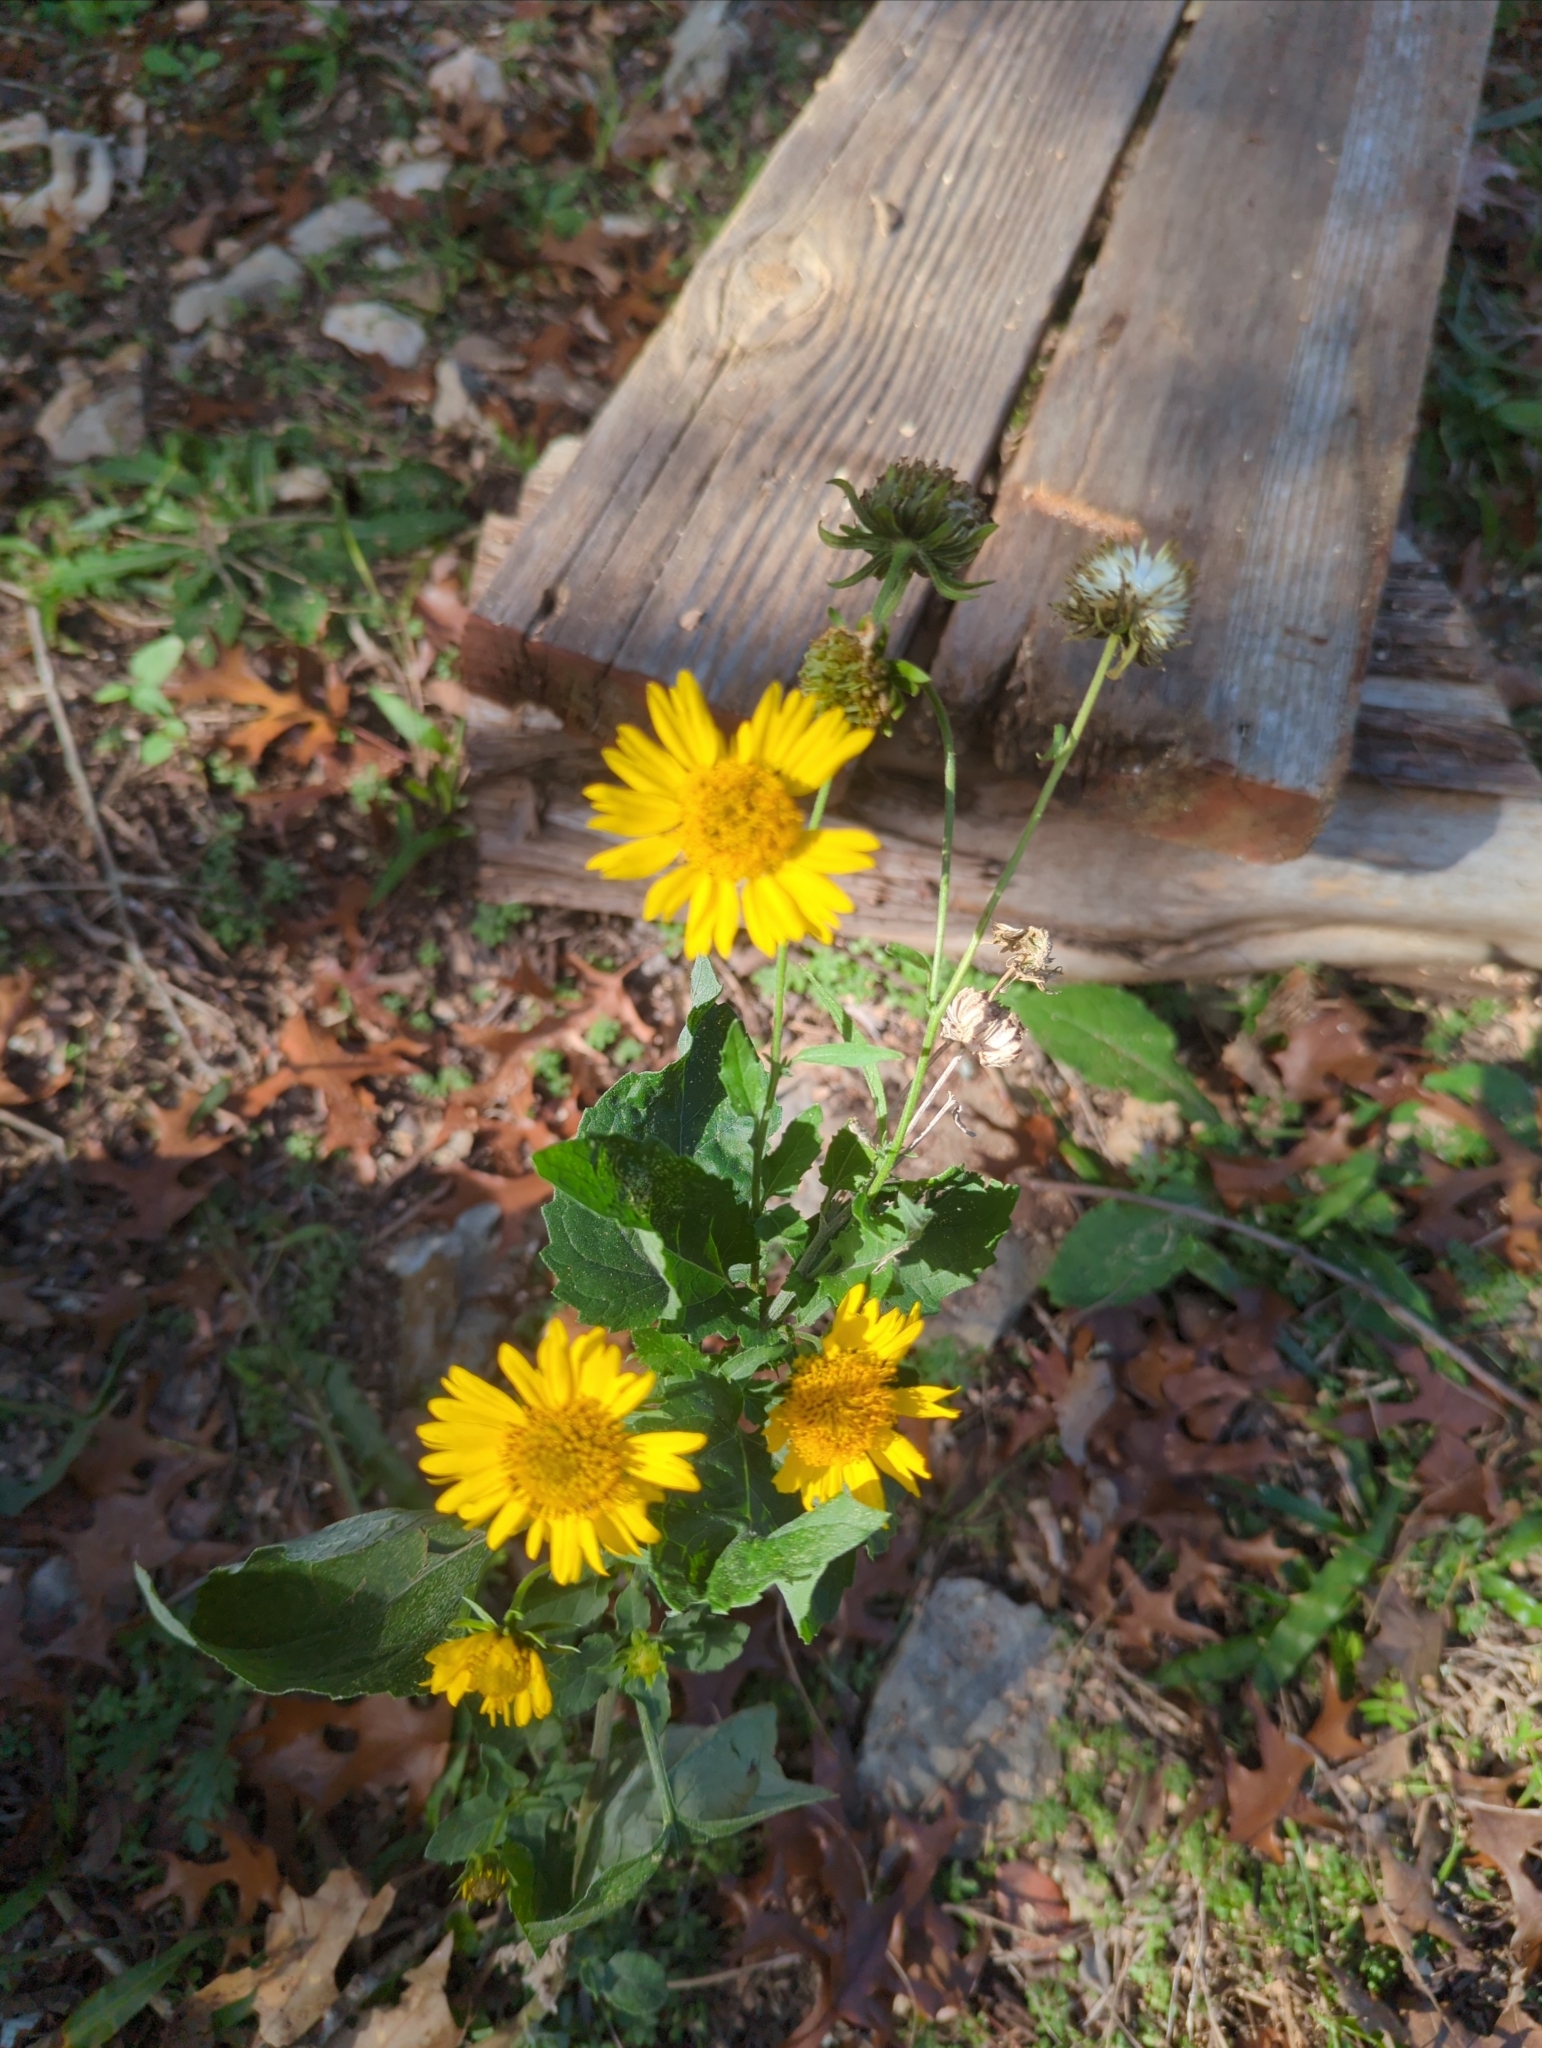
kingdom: Plantae
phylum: Tracheophyta
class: Magnoliopsida
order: Asterales
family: Asteraceae
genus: Verbesina
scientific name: Verbesina encelioides
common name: Golden crownbeard
